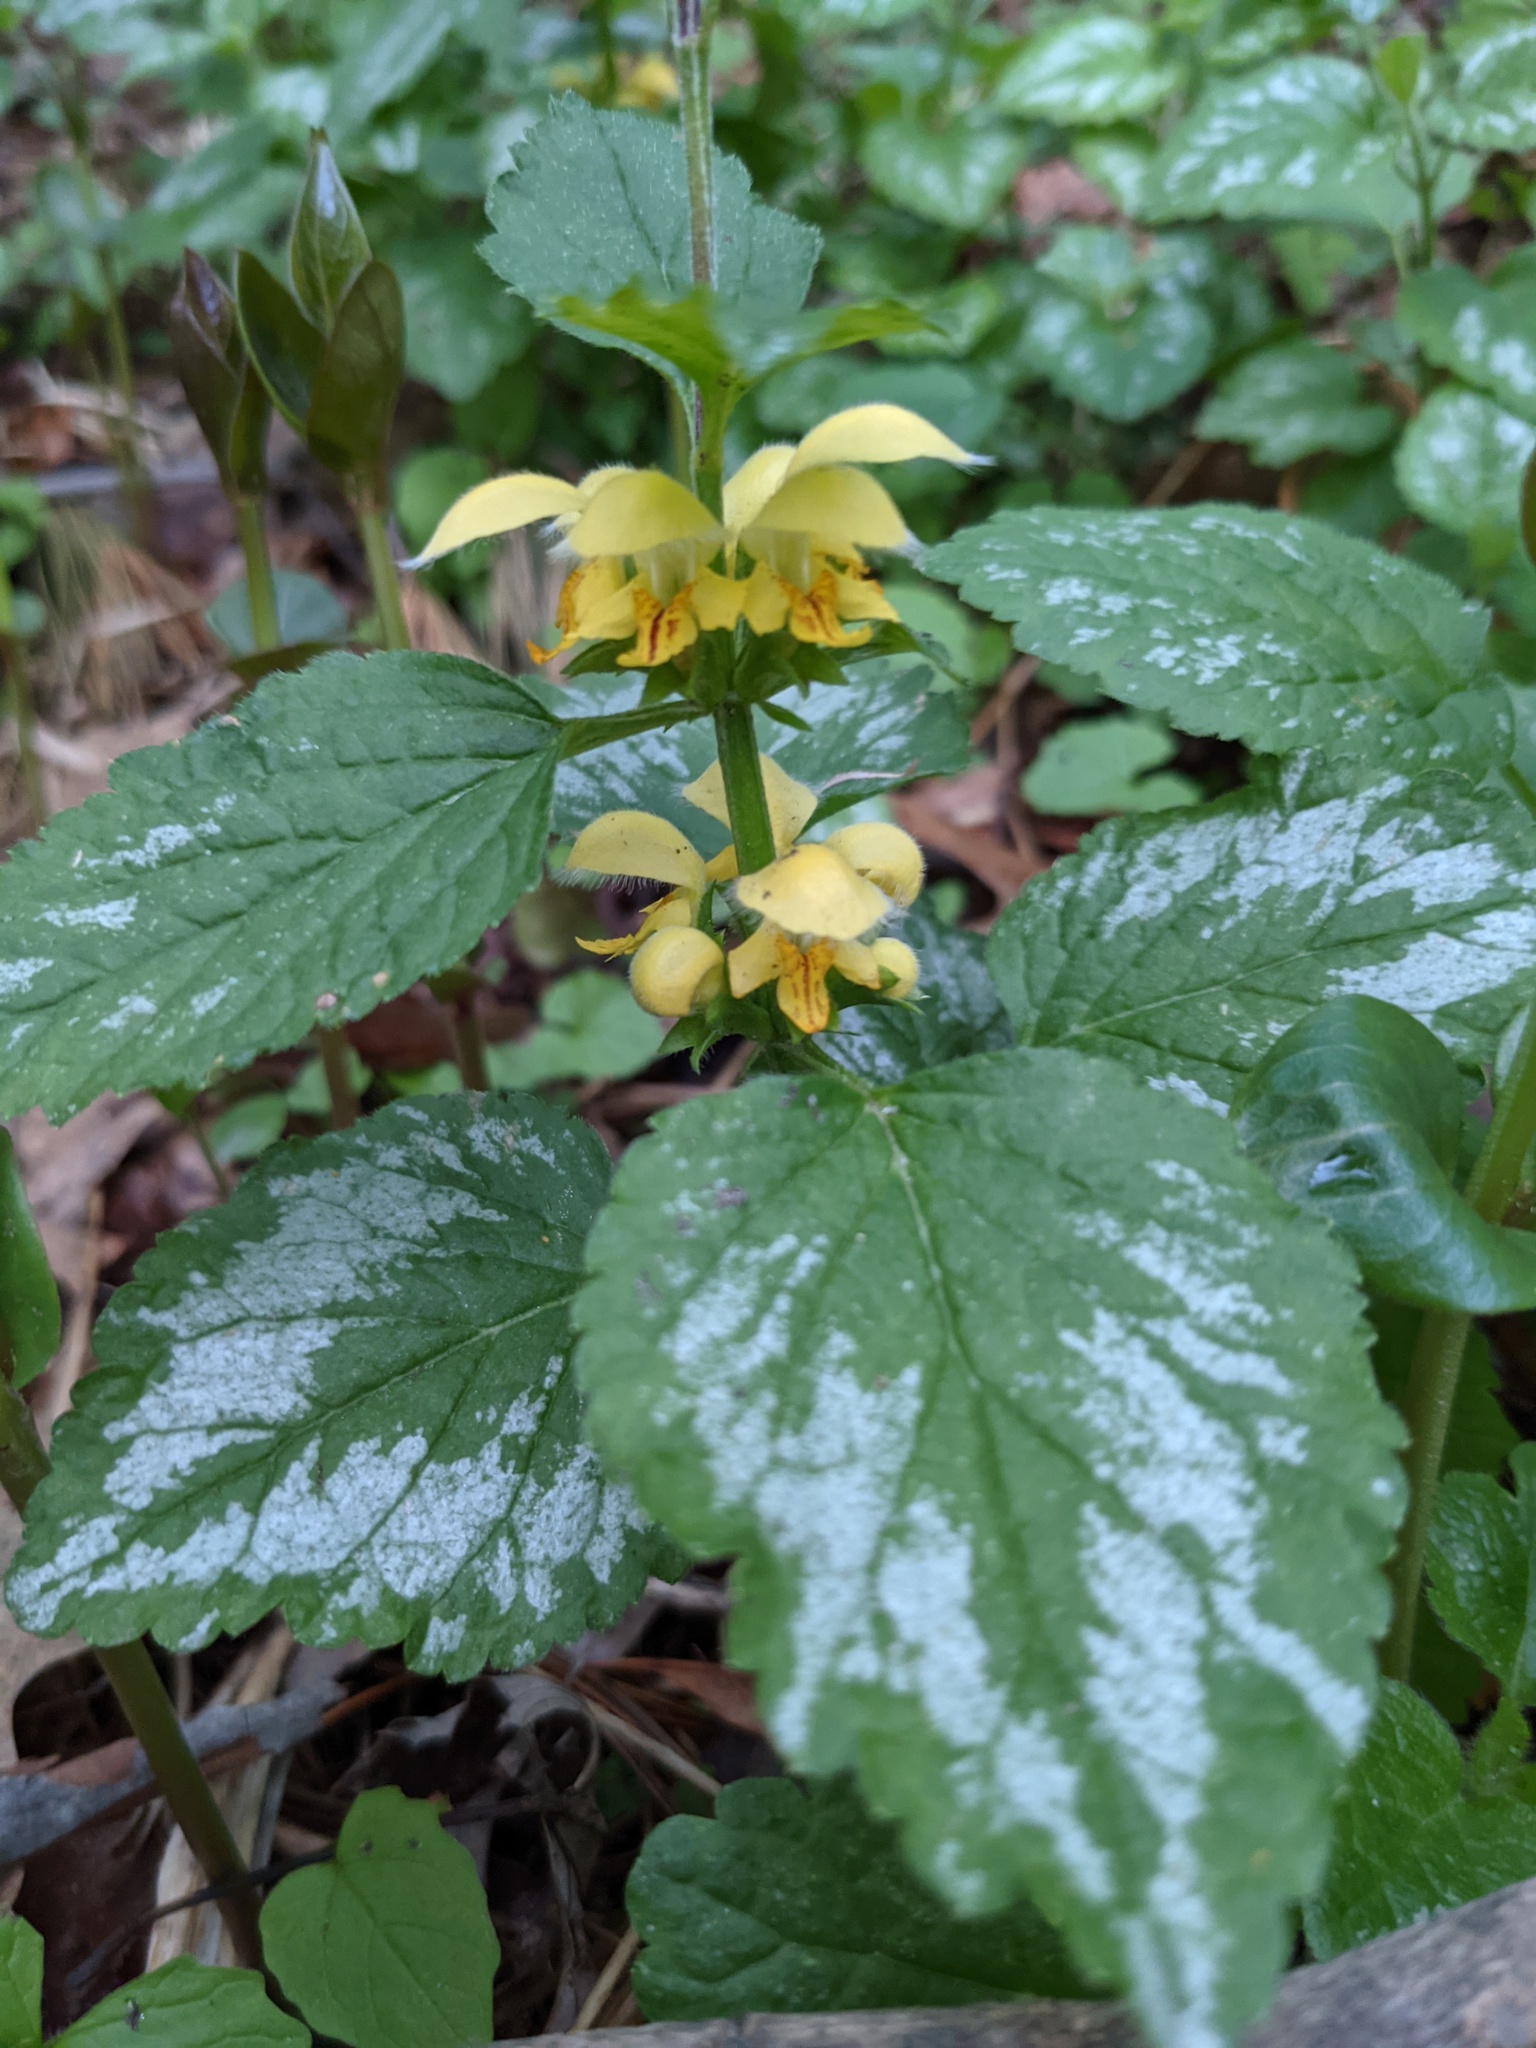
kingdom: Plantae
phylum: Tracheophyta
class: Magnoliopsida
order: Lamiales
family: Lamiaceae
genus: Lamium
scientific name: Lamium galeobdolon
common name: Yellow archangel
